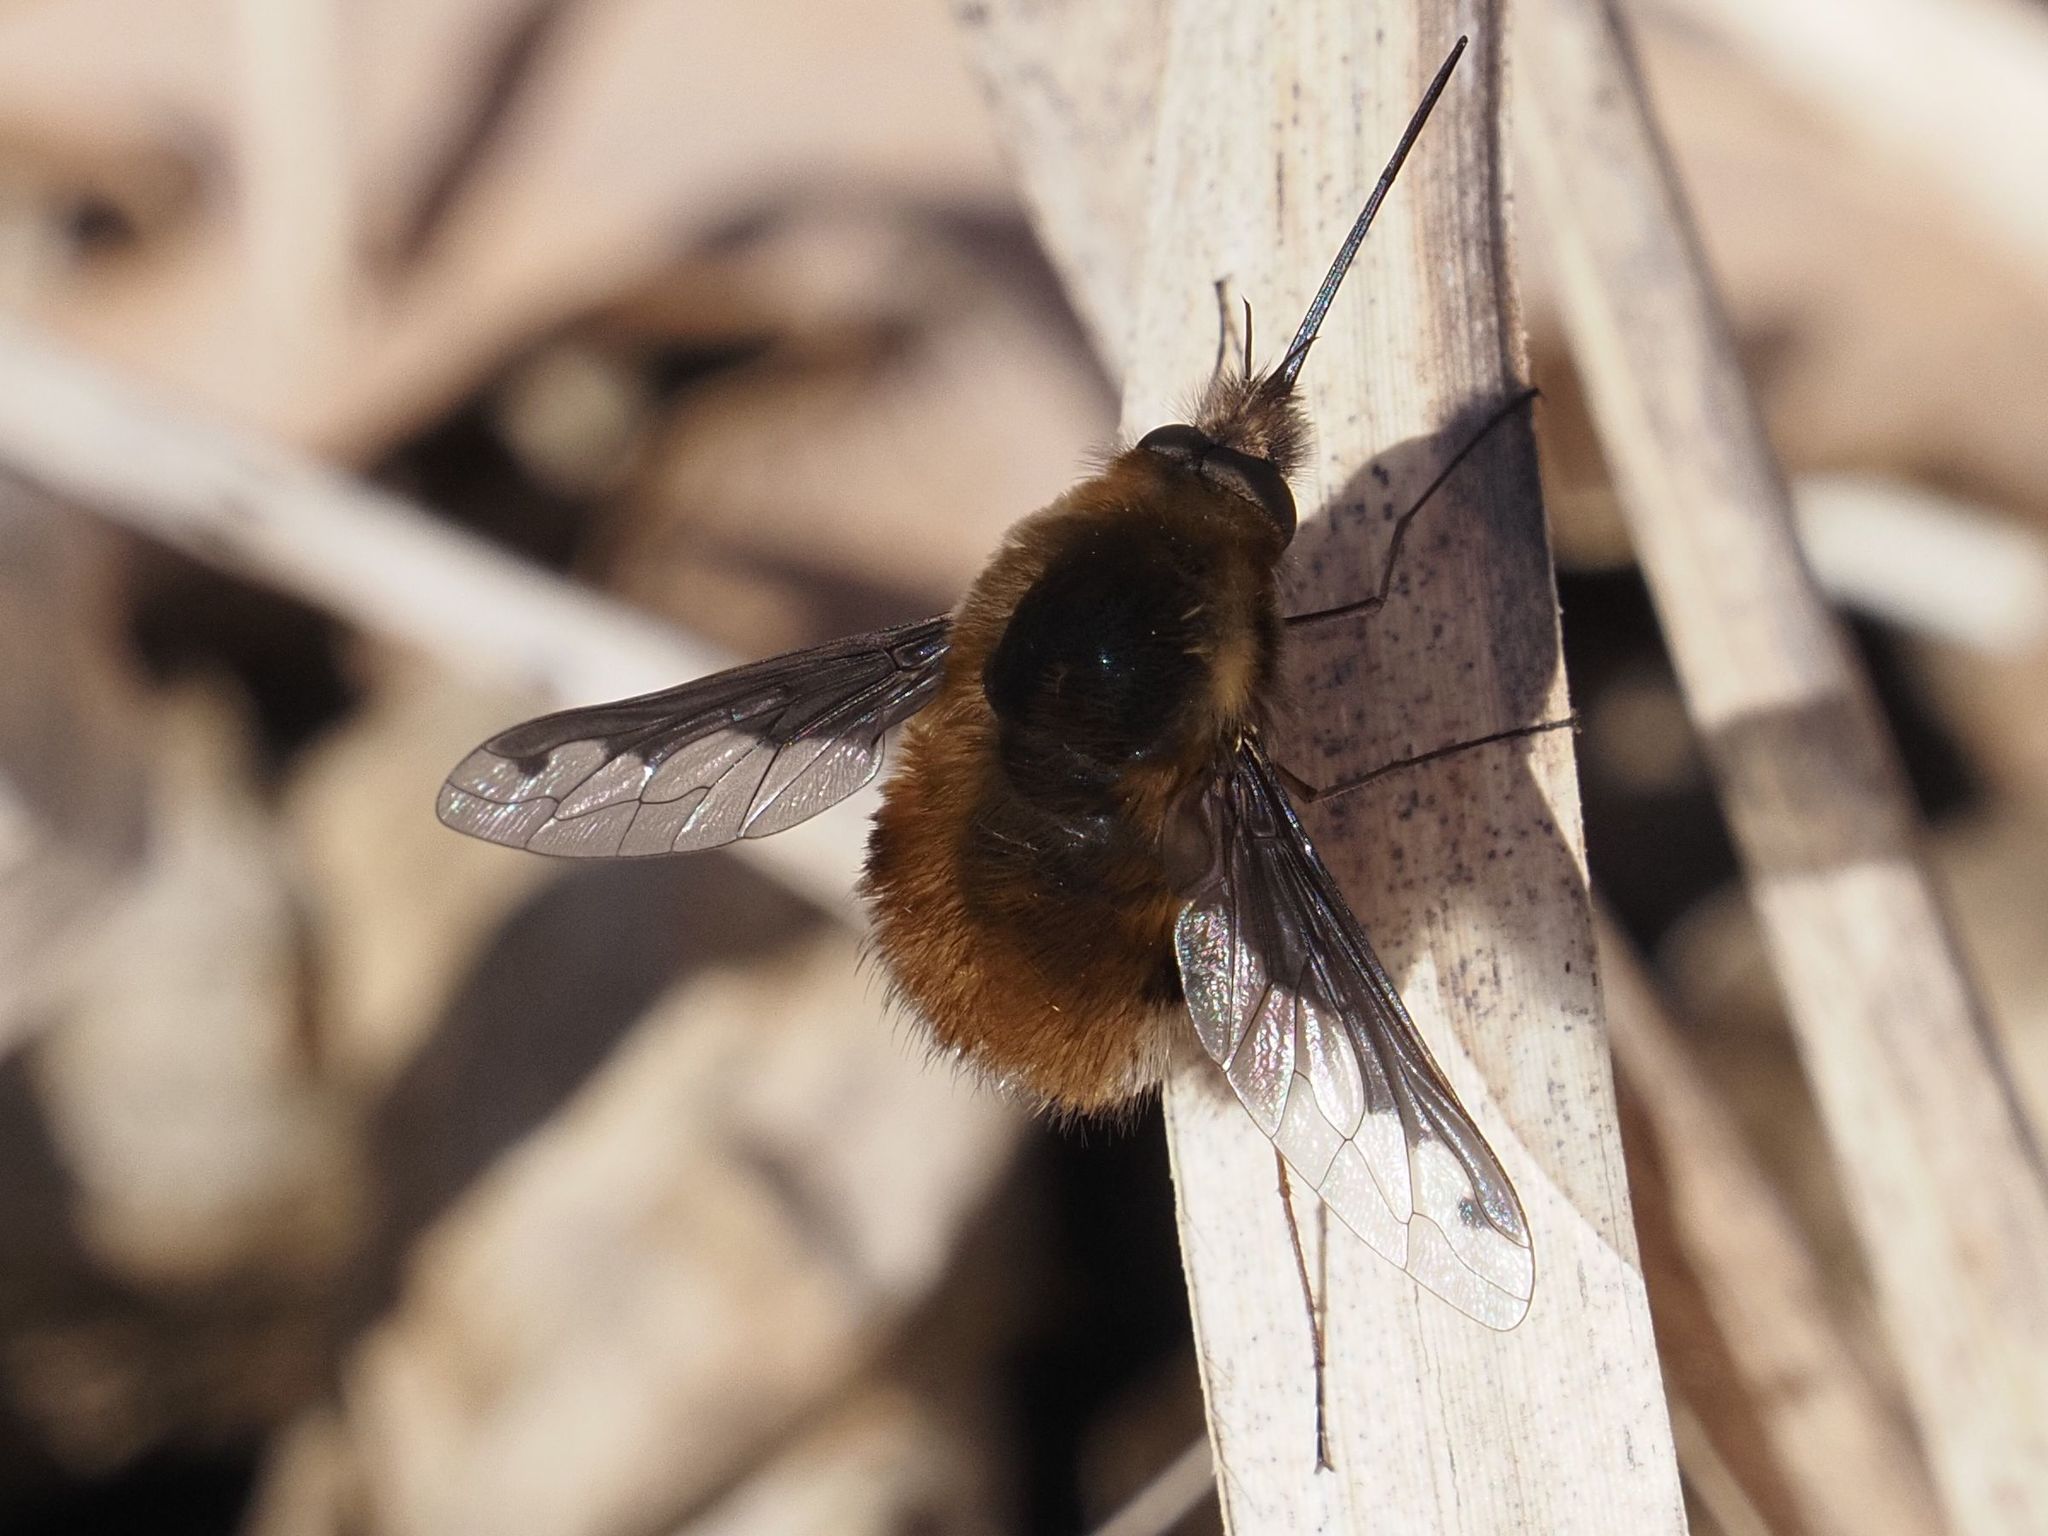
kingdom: Animalia
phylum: Arthropoda
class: Insecta
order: Diptera
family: Bombyliidae
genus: Bombylius
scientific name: Bombylius major
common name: Bee fly
